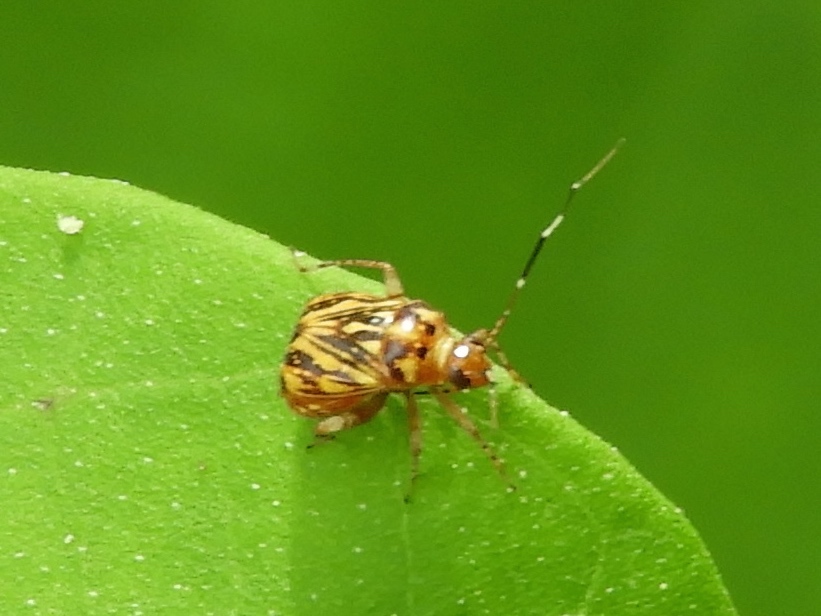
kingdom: Animalia
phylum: Arthropoda
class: Insecta
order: Hemiptera
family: Miridae
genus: Taedia
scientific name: Taedia
